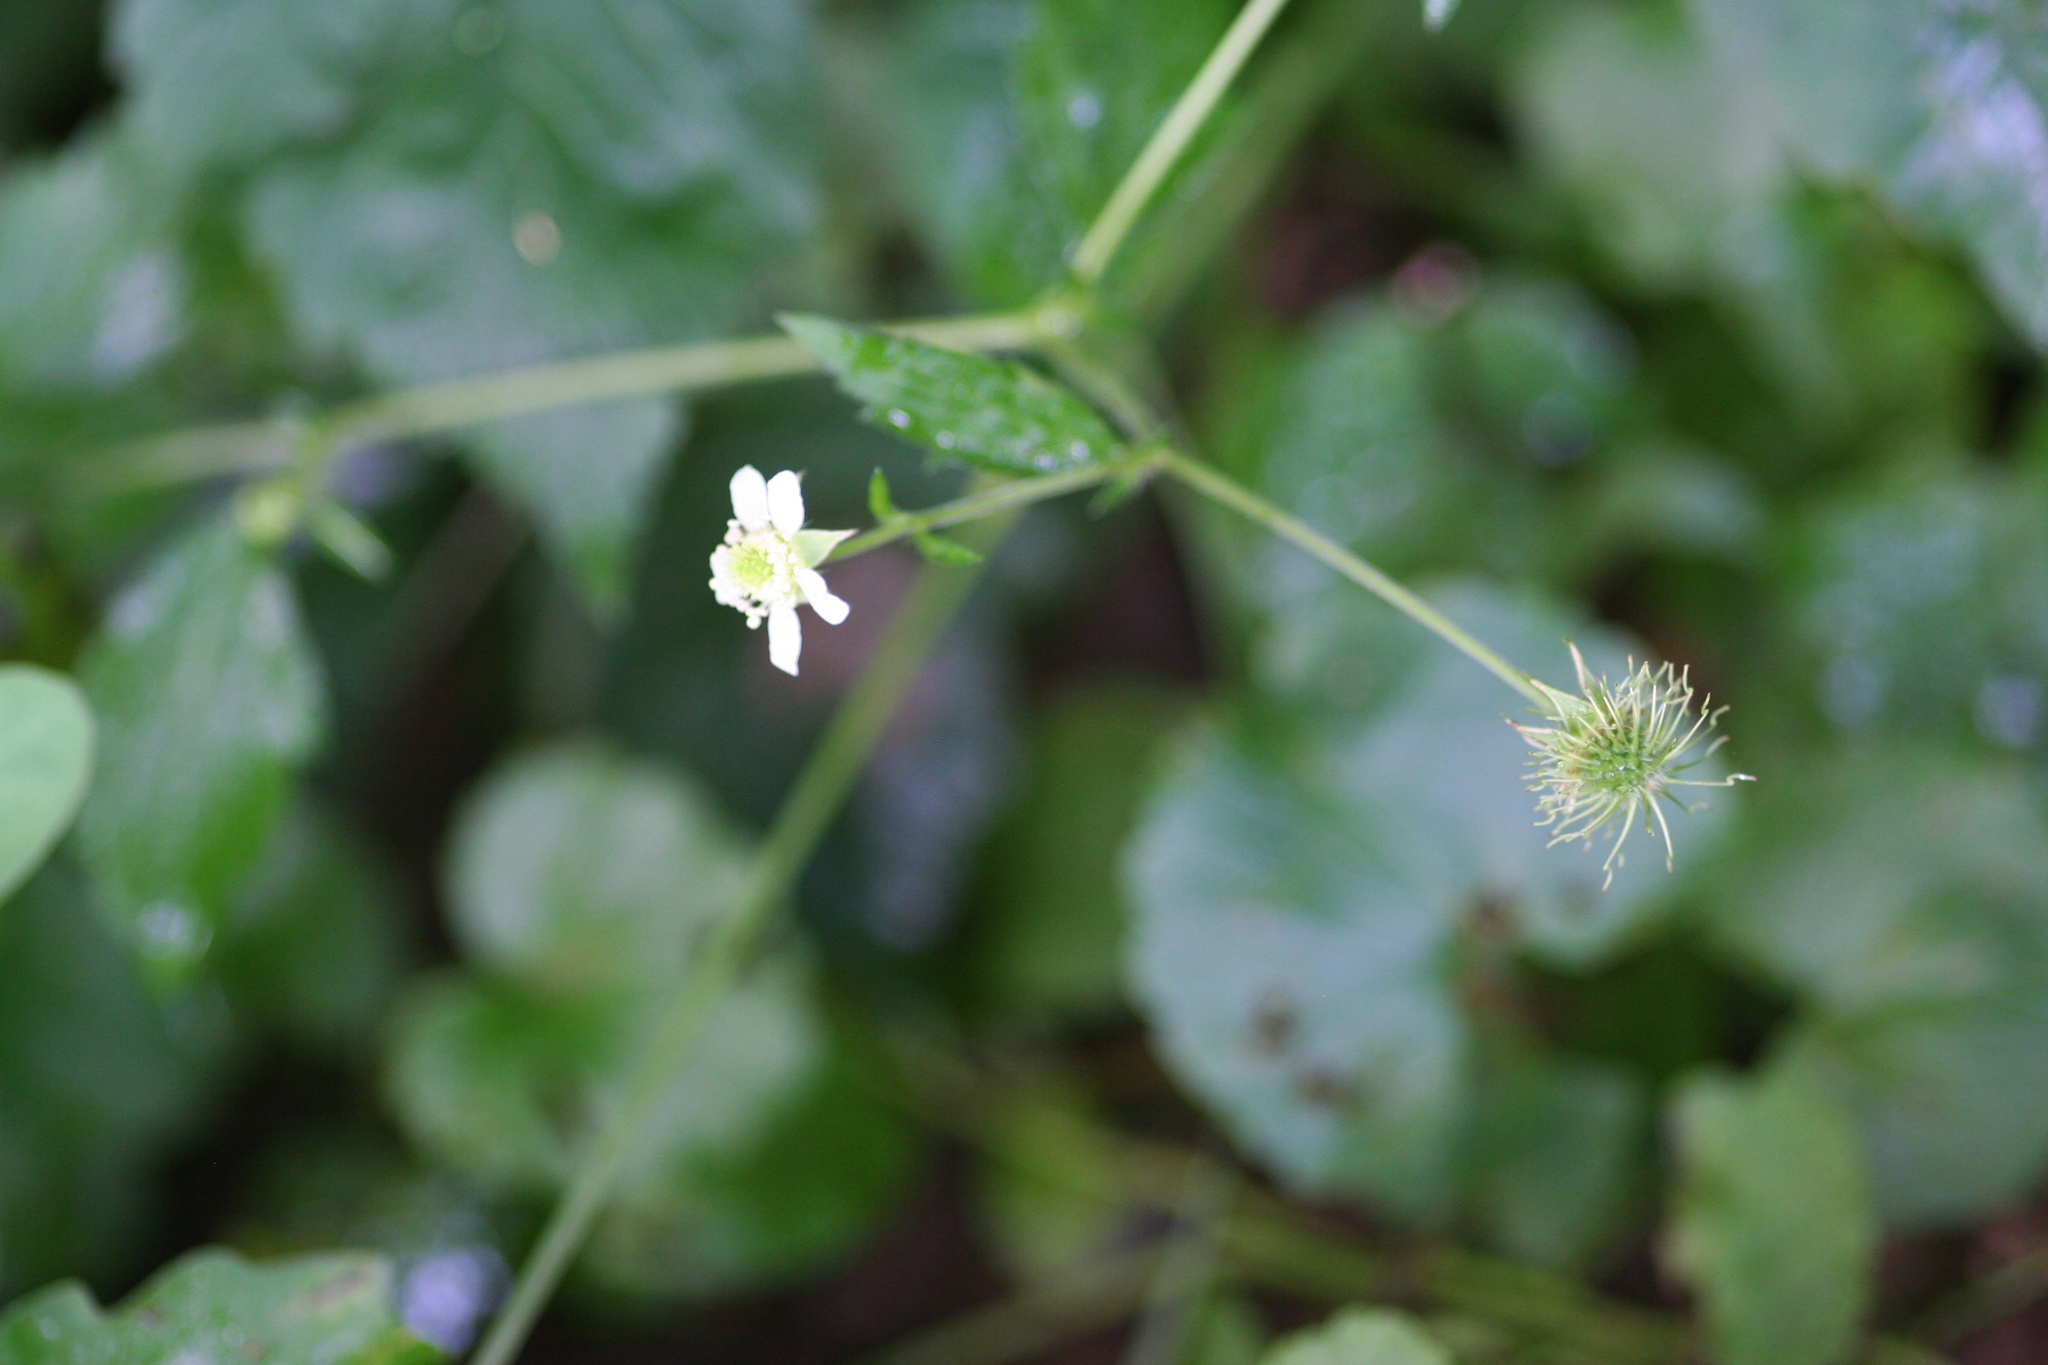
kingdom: Plantae
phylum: Tracheophyta
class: Magnoliopsida
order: Rosales
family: Rosaceae
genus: Geum
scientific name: Geum canadense
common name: White avens
